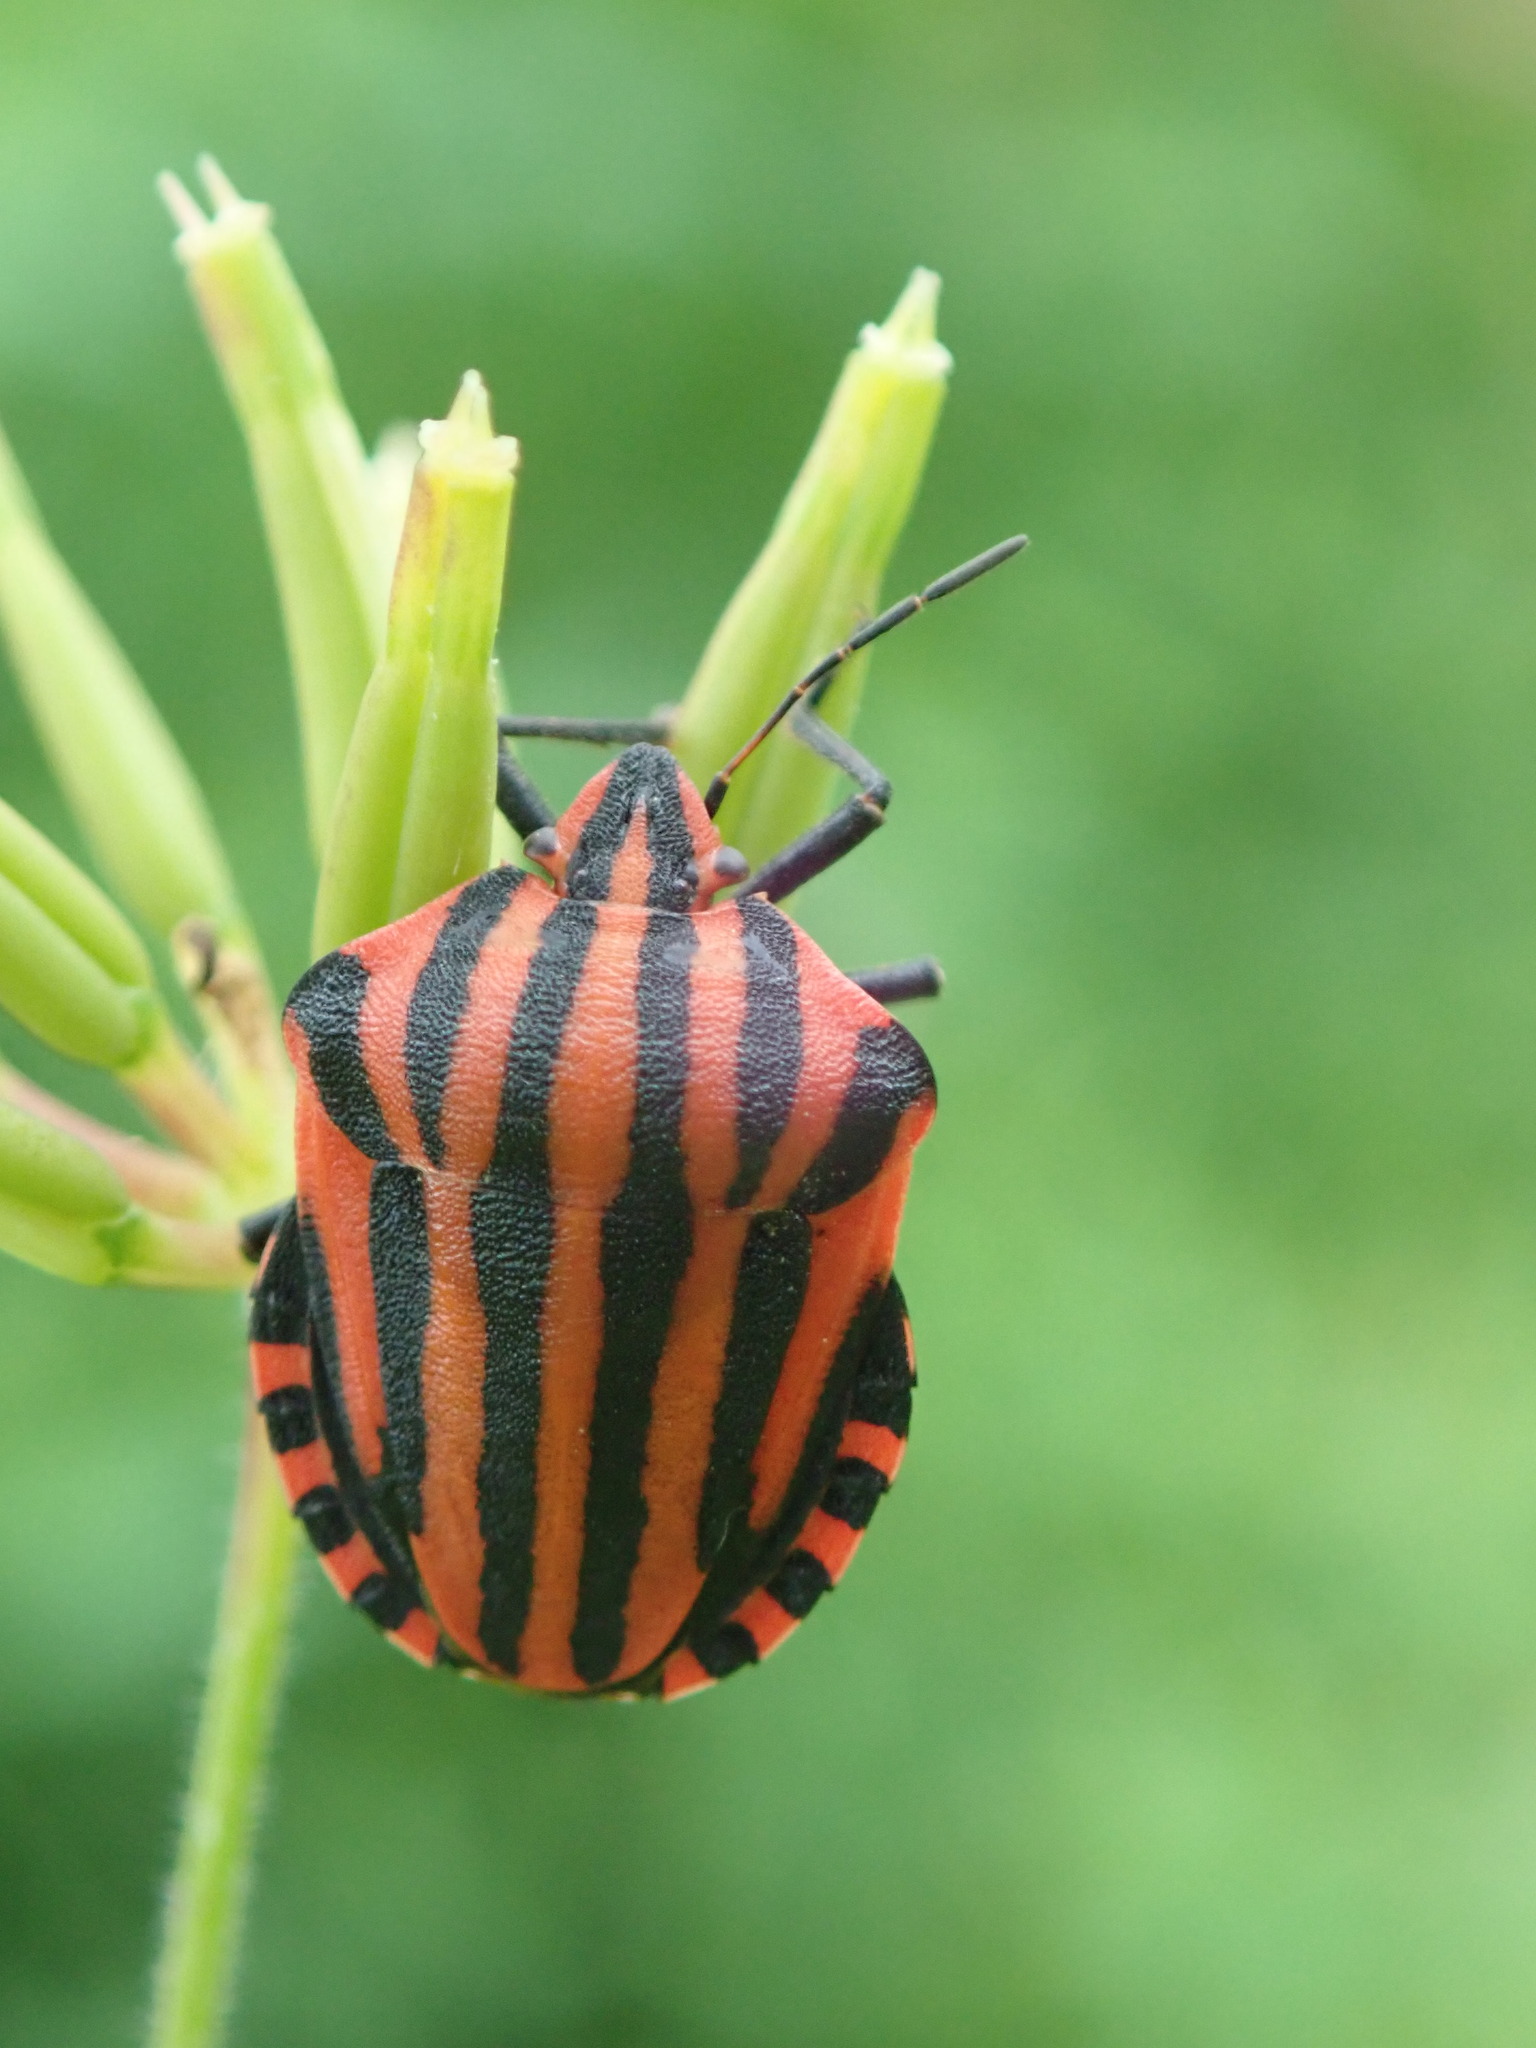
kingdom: Animalia
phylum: Arthropoda
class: Insecta
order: Hemiptera
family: Pentatomidae
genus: Graphosoma
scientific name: Graphosoma italicum
